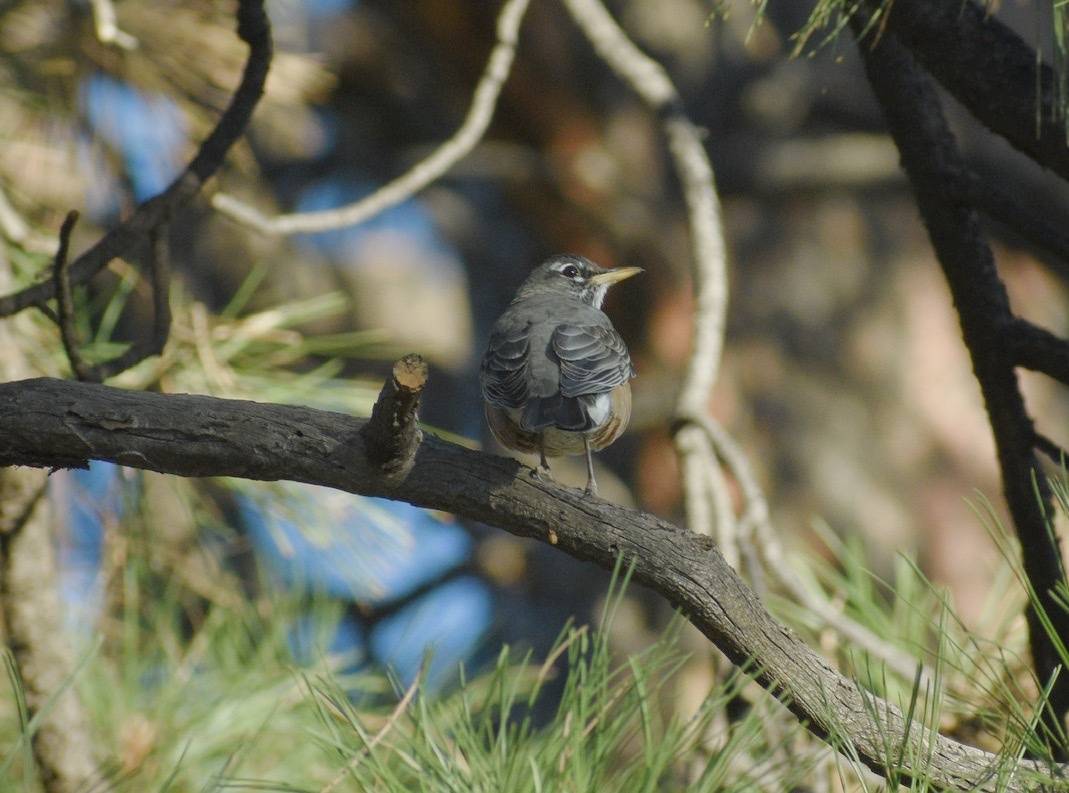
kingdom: Animalia
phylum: Chordata
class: Aves
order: Passeriformes
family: Turdidae
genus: Turdus
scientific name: Turdus migratorius
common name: American robin
